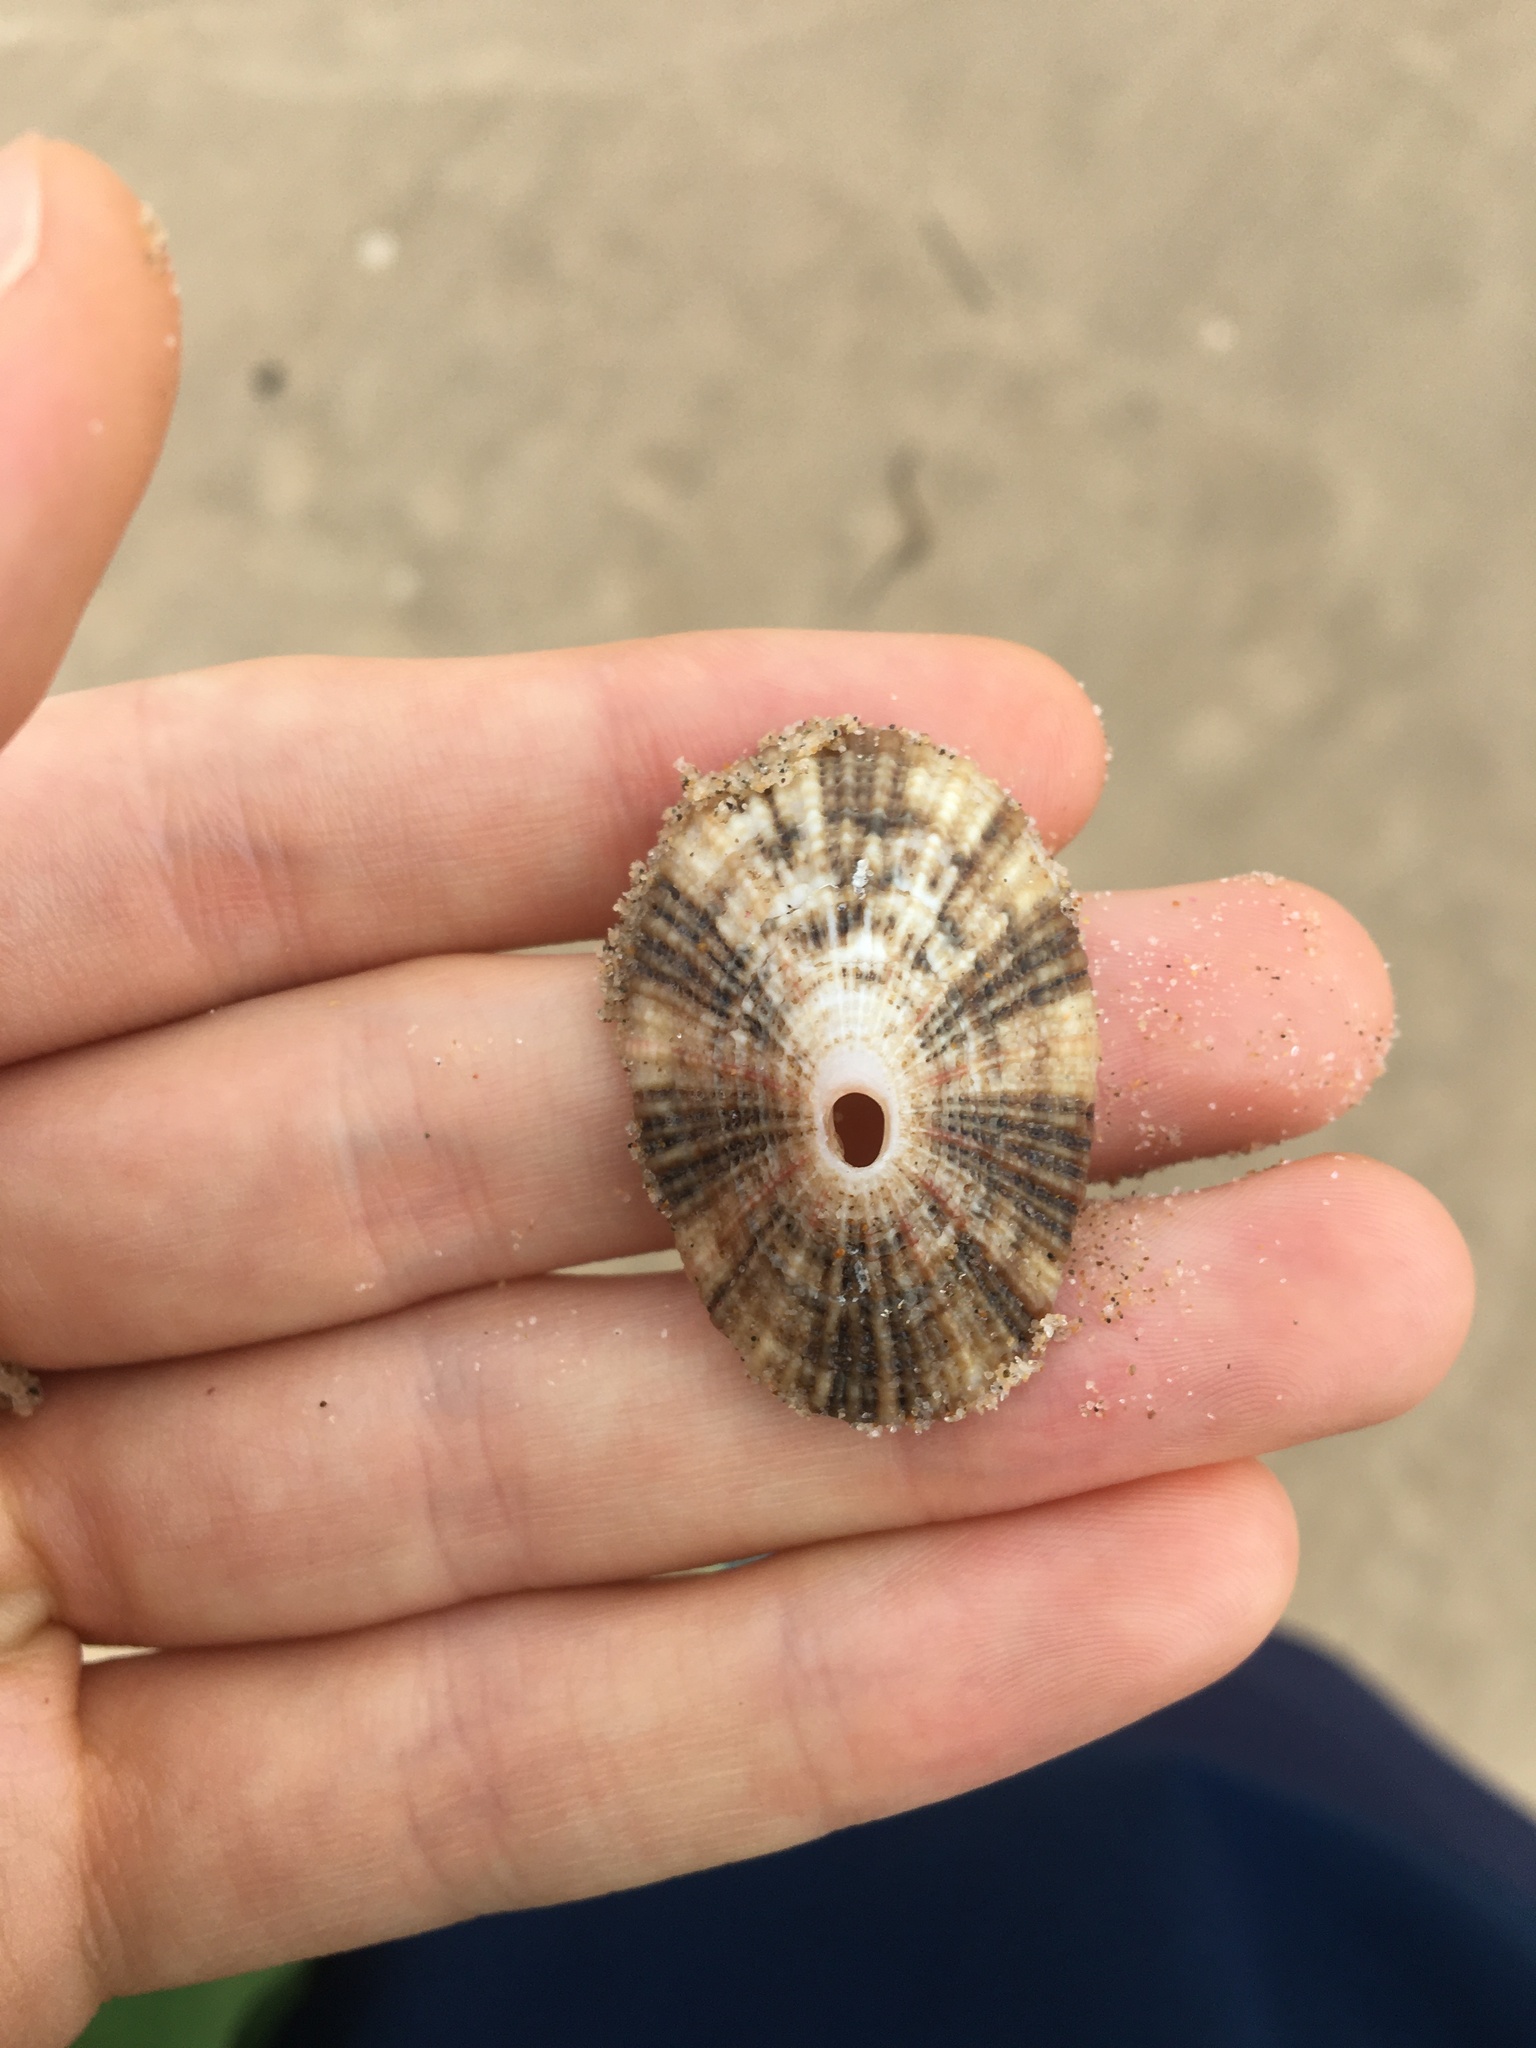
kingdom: Animalia
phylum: Mollusca
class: Gastropoda
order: Lepetellida
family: Fissurellidae
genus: Diodora
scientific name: Diodora lineata
